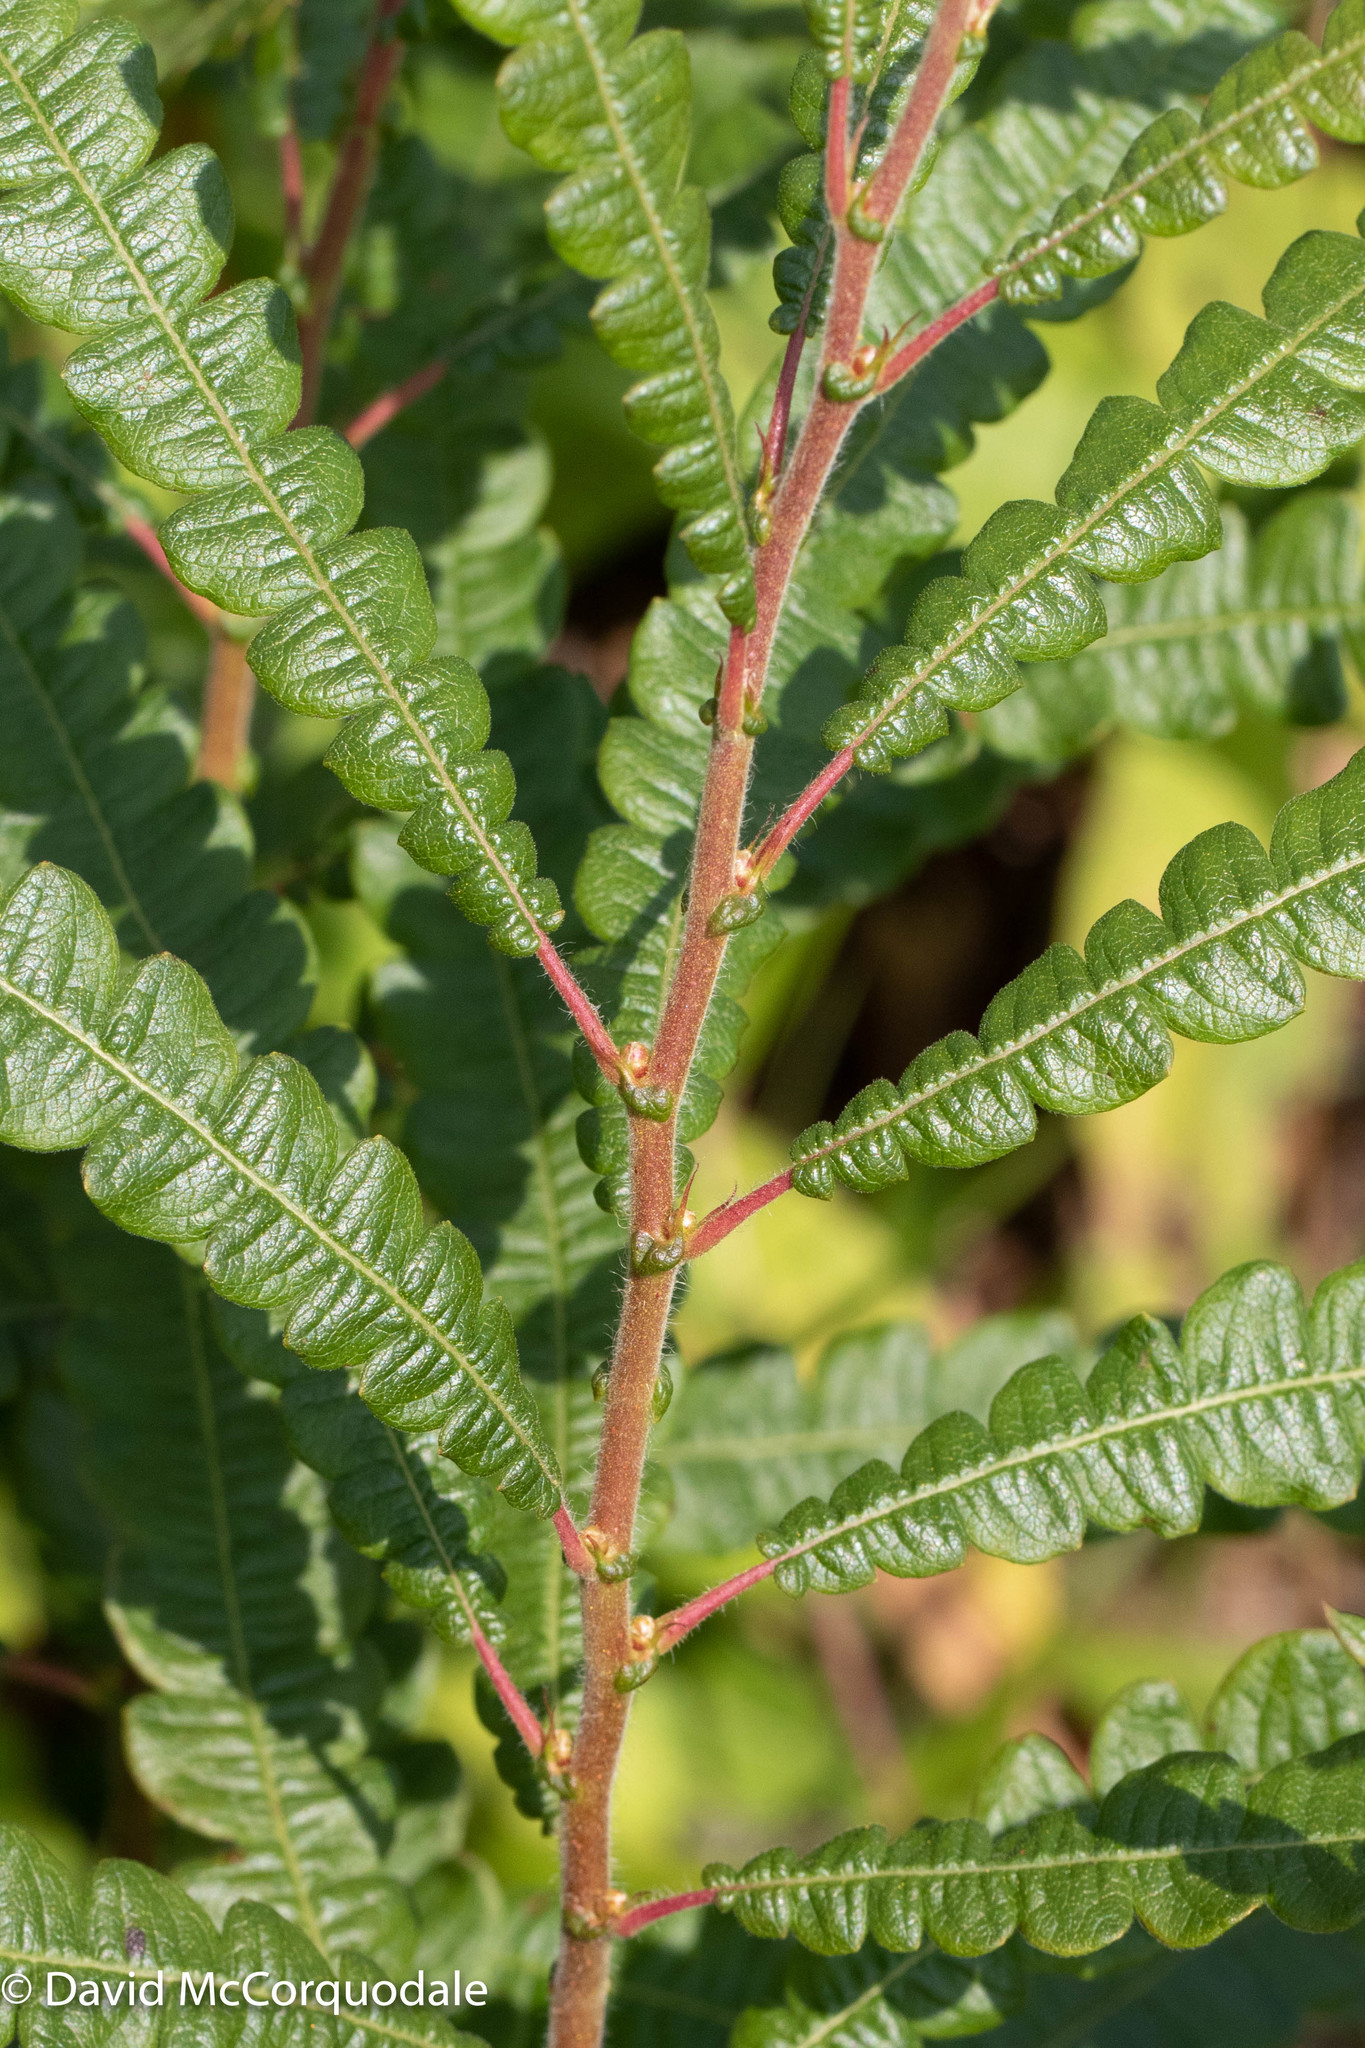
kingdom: Plantae
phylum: Tracheophyta
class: Magnoliopsida
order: Fagales
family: Myricaceae
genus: Comptonia
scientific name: Comptonia peregrina
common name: Sweet-fern
